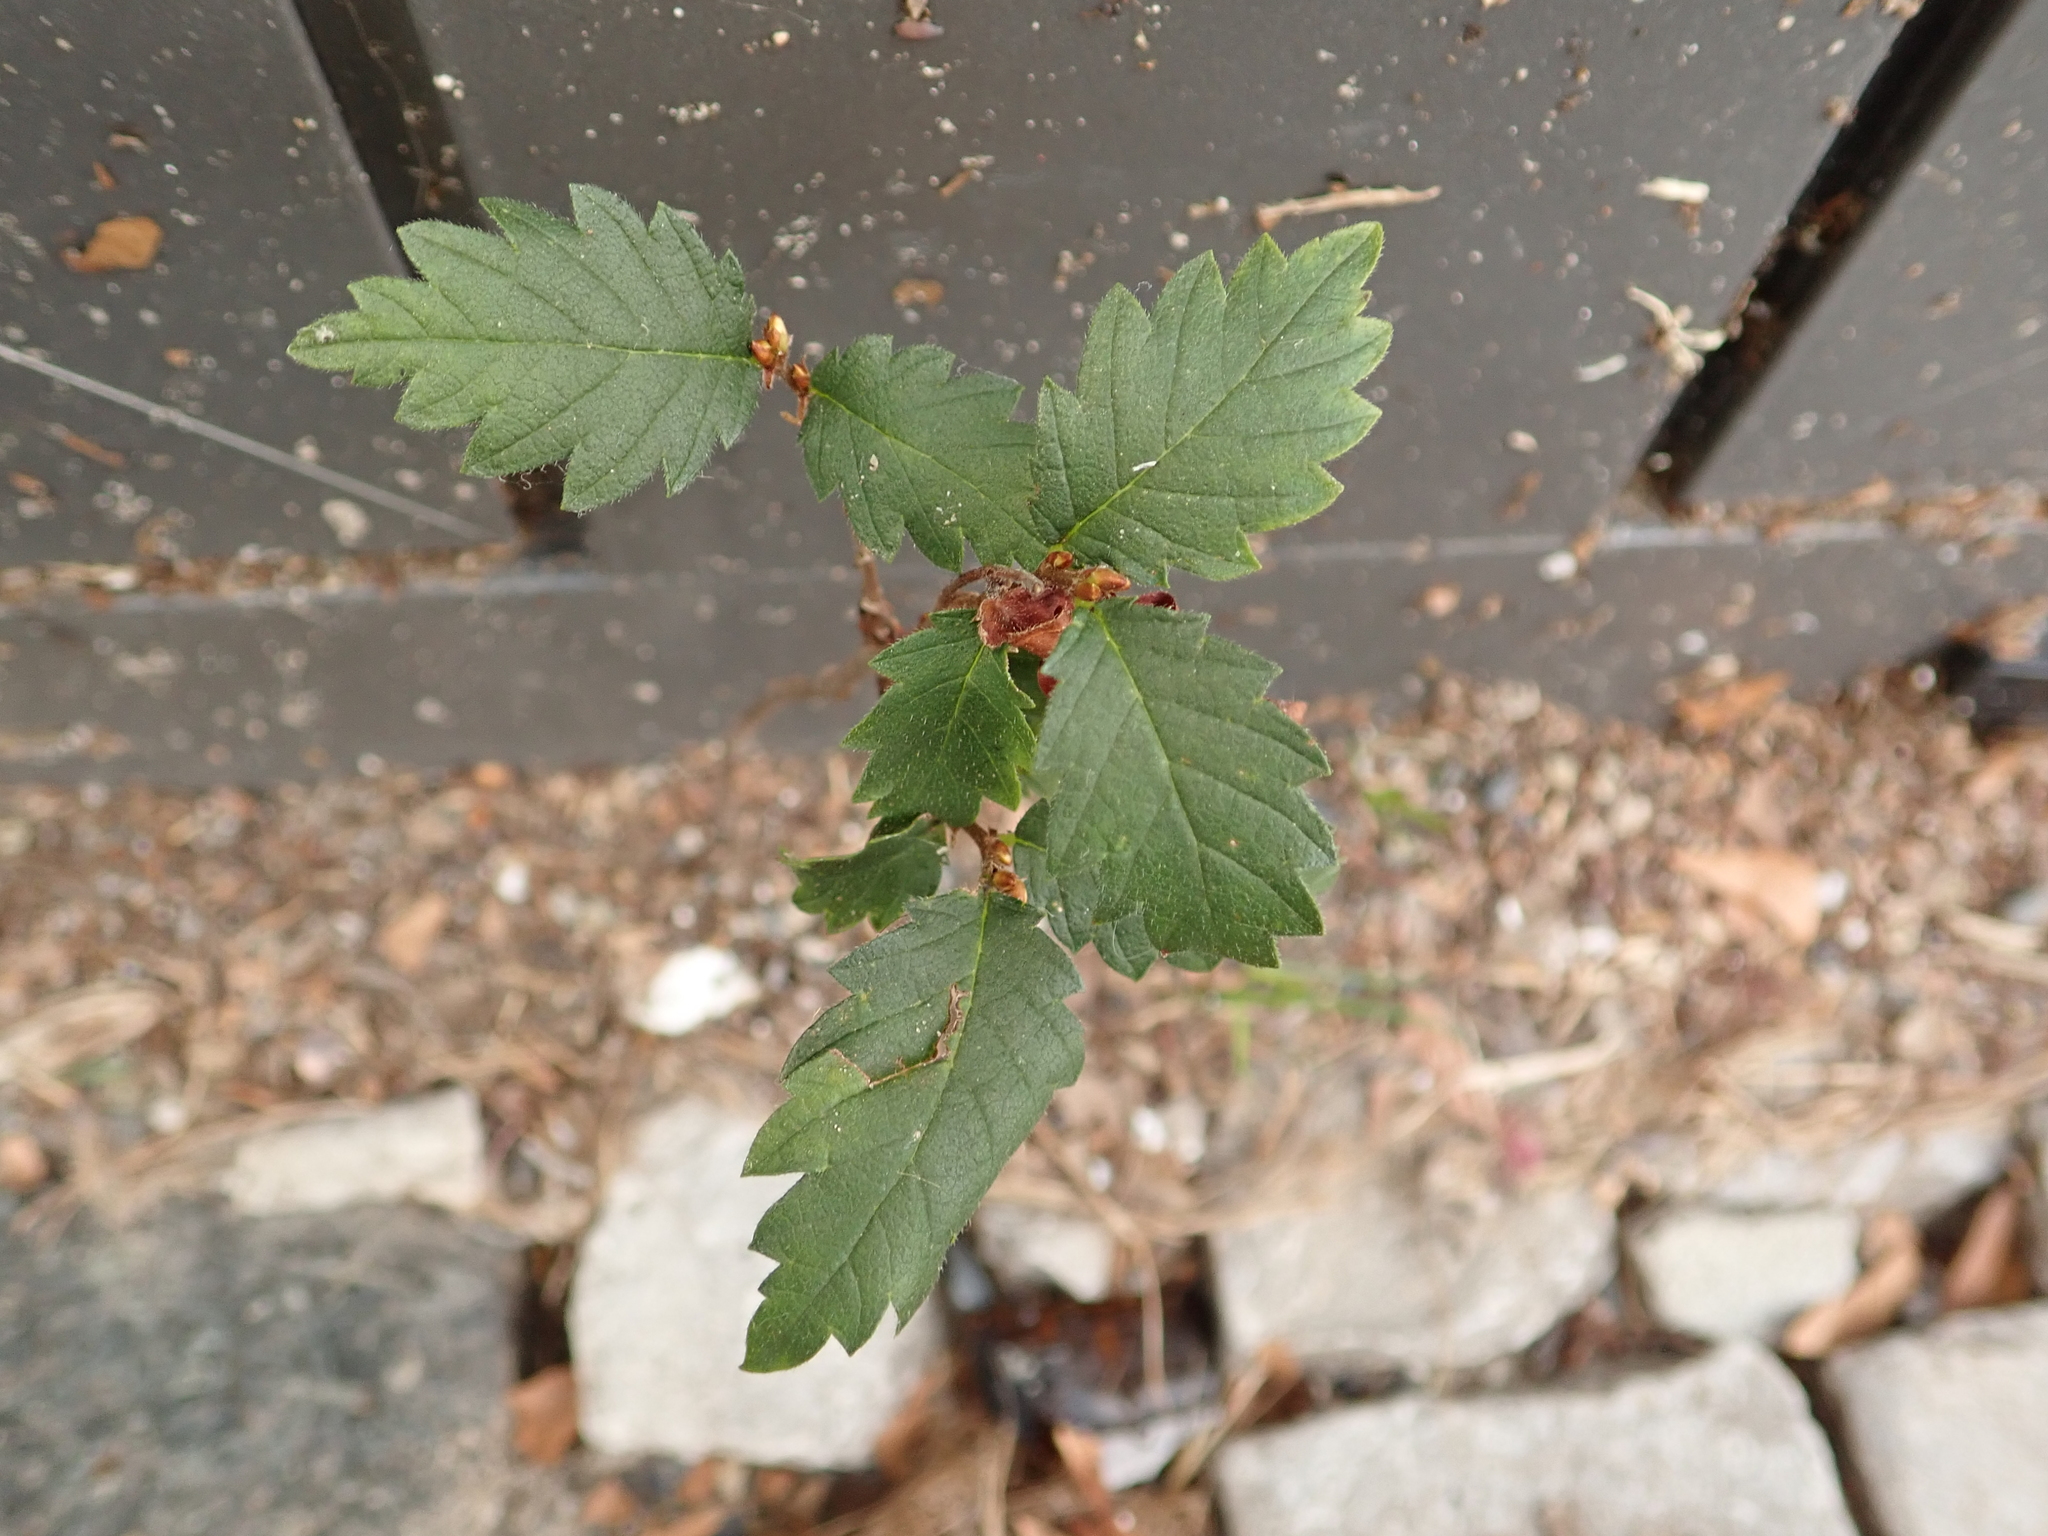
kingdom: Plantae
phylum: Tracheophyta
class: Magnoliopsida
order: Rosales
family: Ulmaceae
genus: Ulmus
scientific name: Ulmus minor
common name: Small-leaved elm
